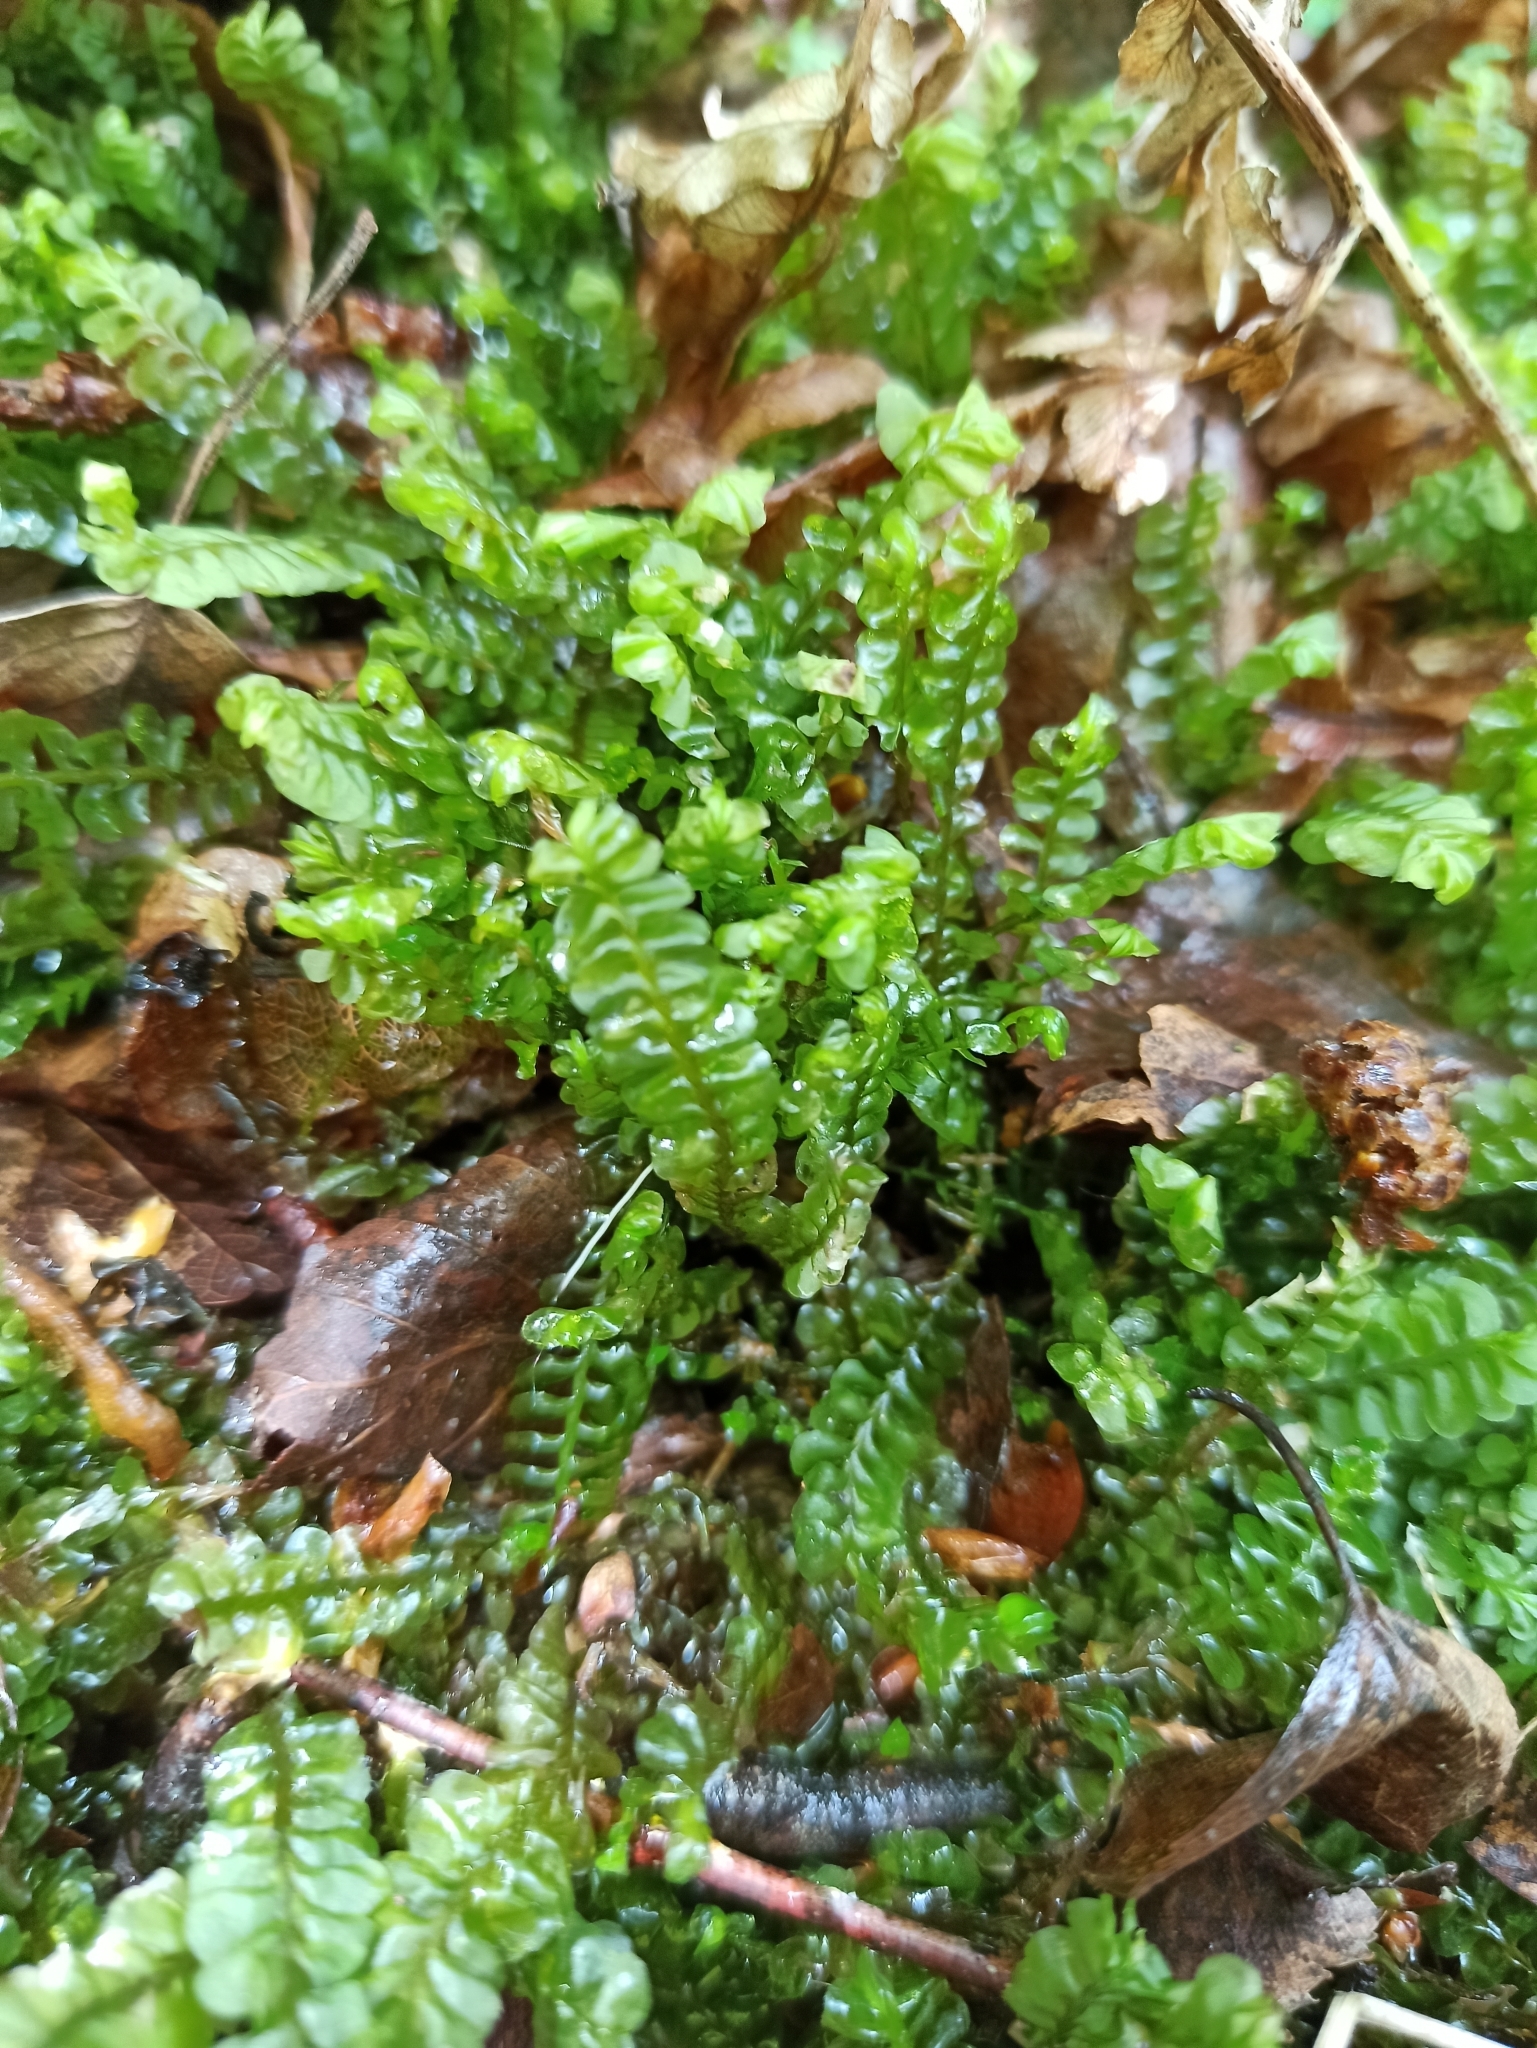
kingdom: Plantae
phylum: Marchantiophyta
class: Jungermanniopsida
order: Jungermanniales
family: Plagiochilaceae
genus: Plagiochila
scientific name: Plagiochila asplenioides
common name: Greater featherwort
